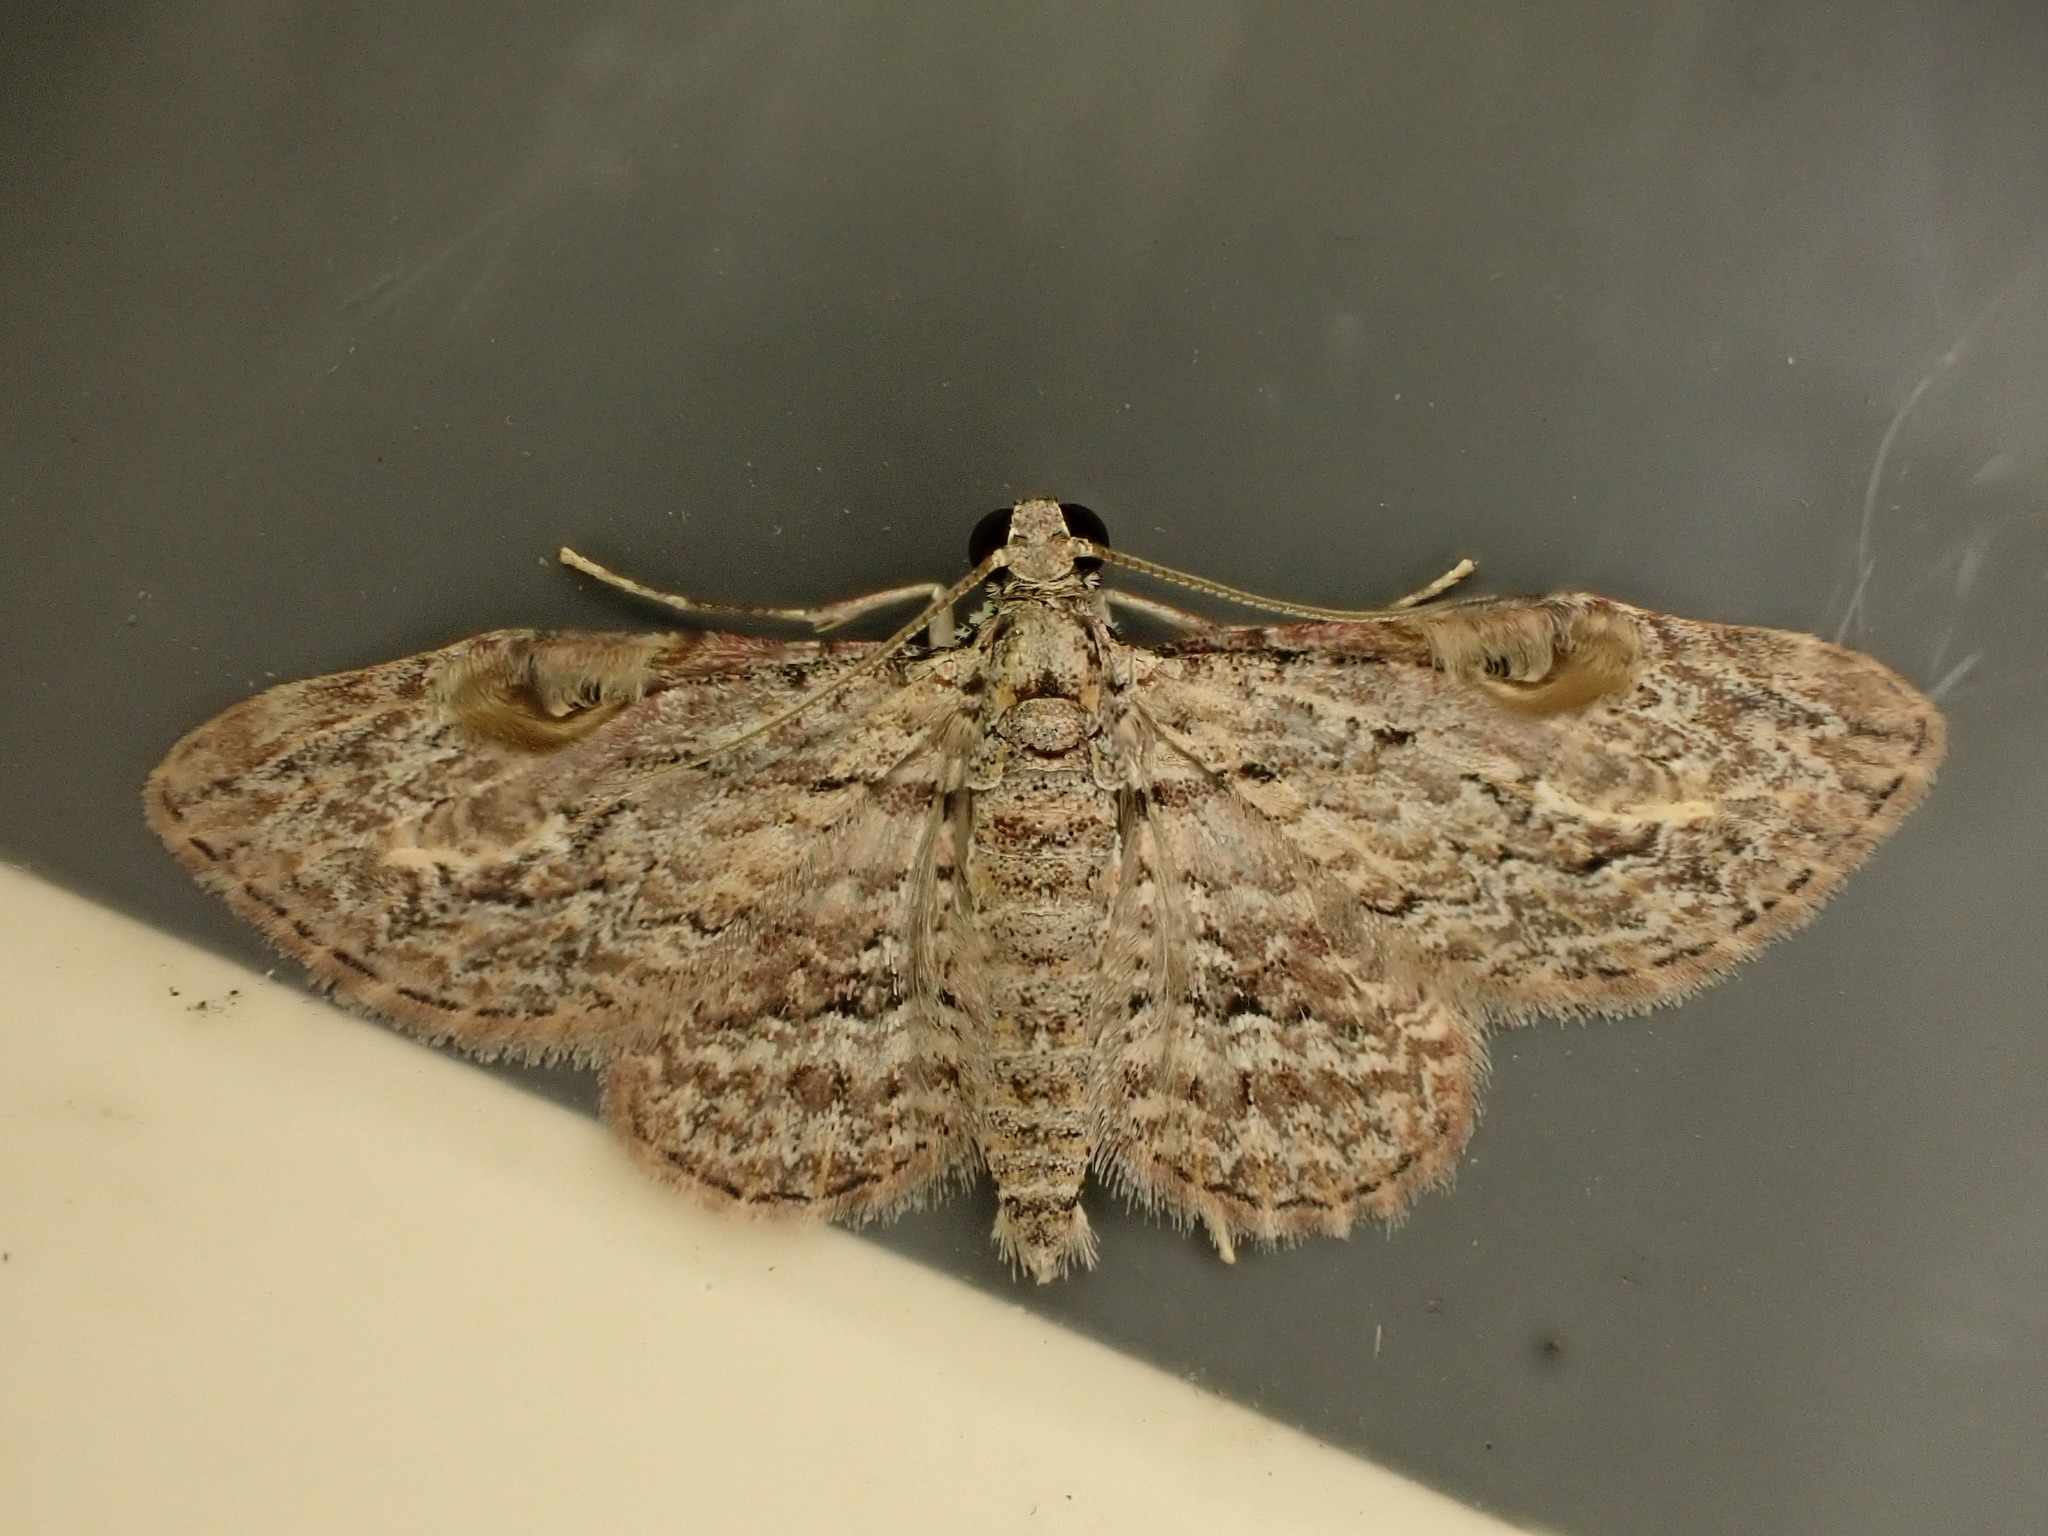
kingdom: Animalia
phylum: Arthropoda
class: Insecta
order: Lepidoptera
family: Geometridae
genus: Chloroclystis
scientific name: Chloroclystis insigillata
